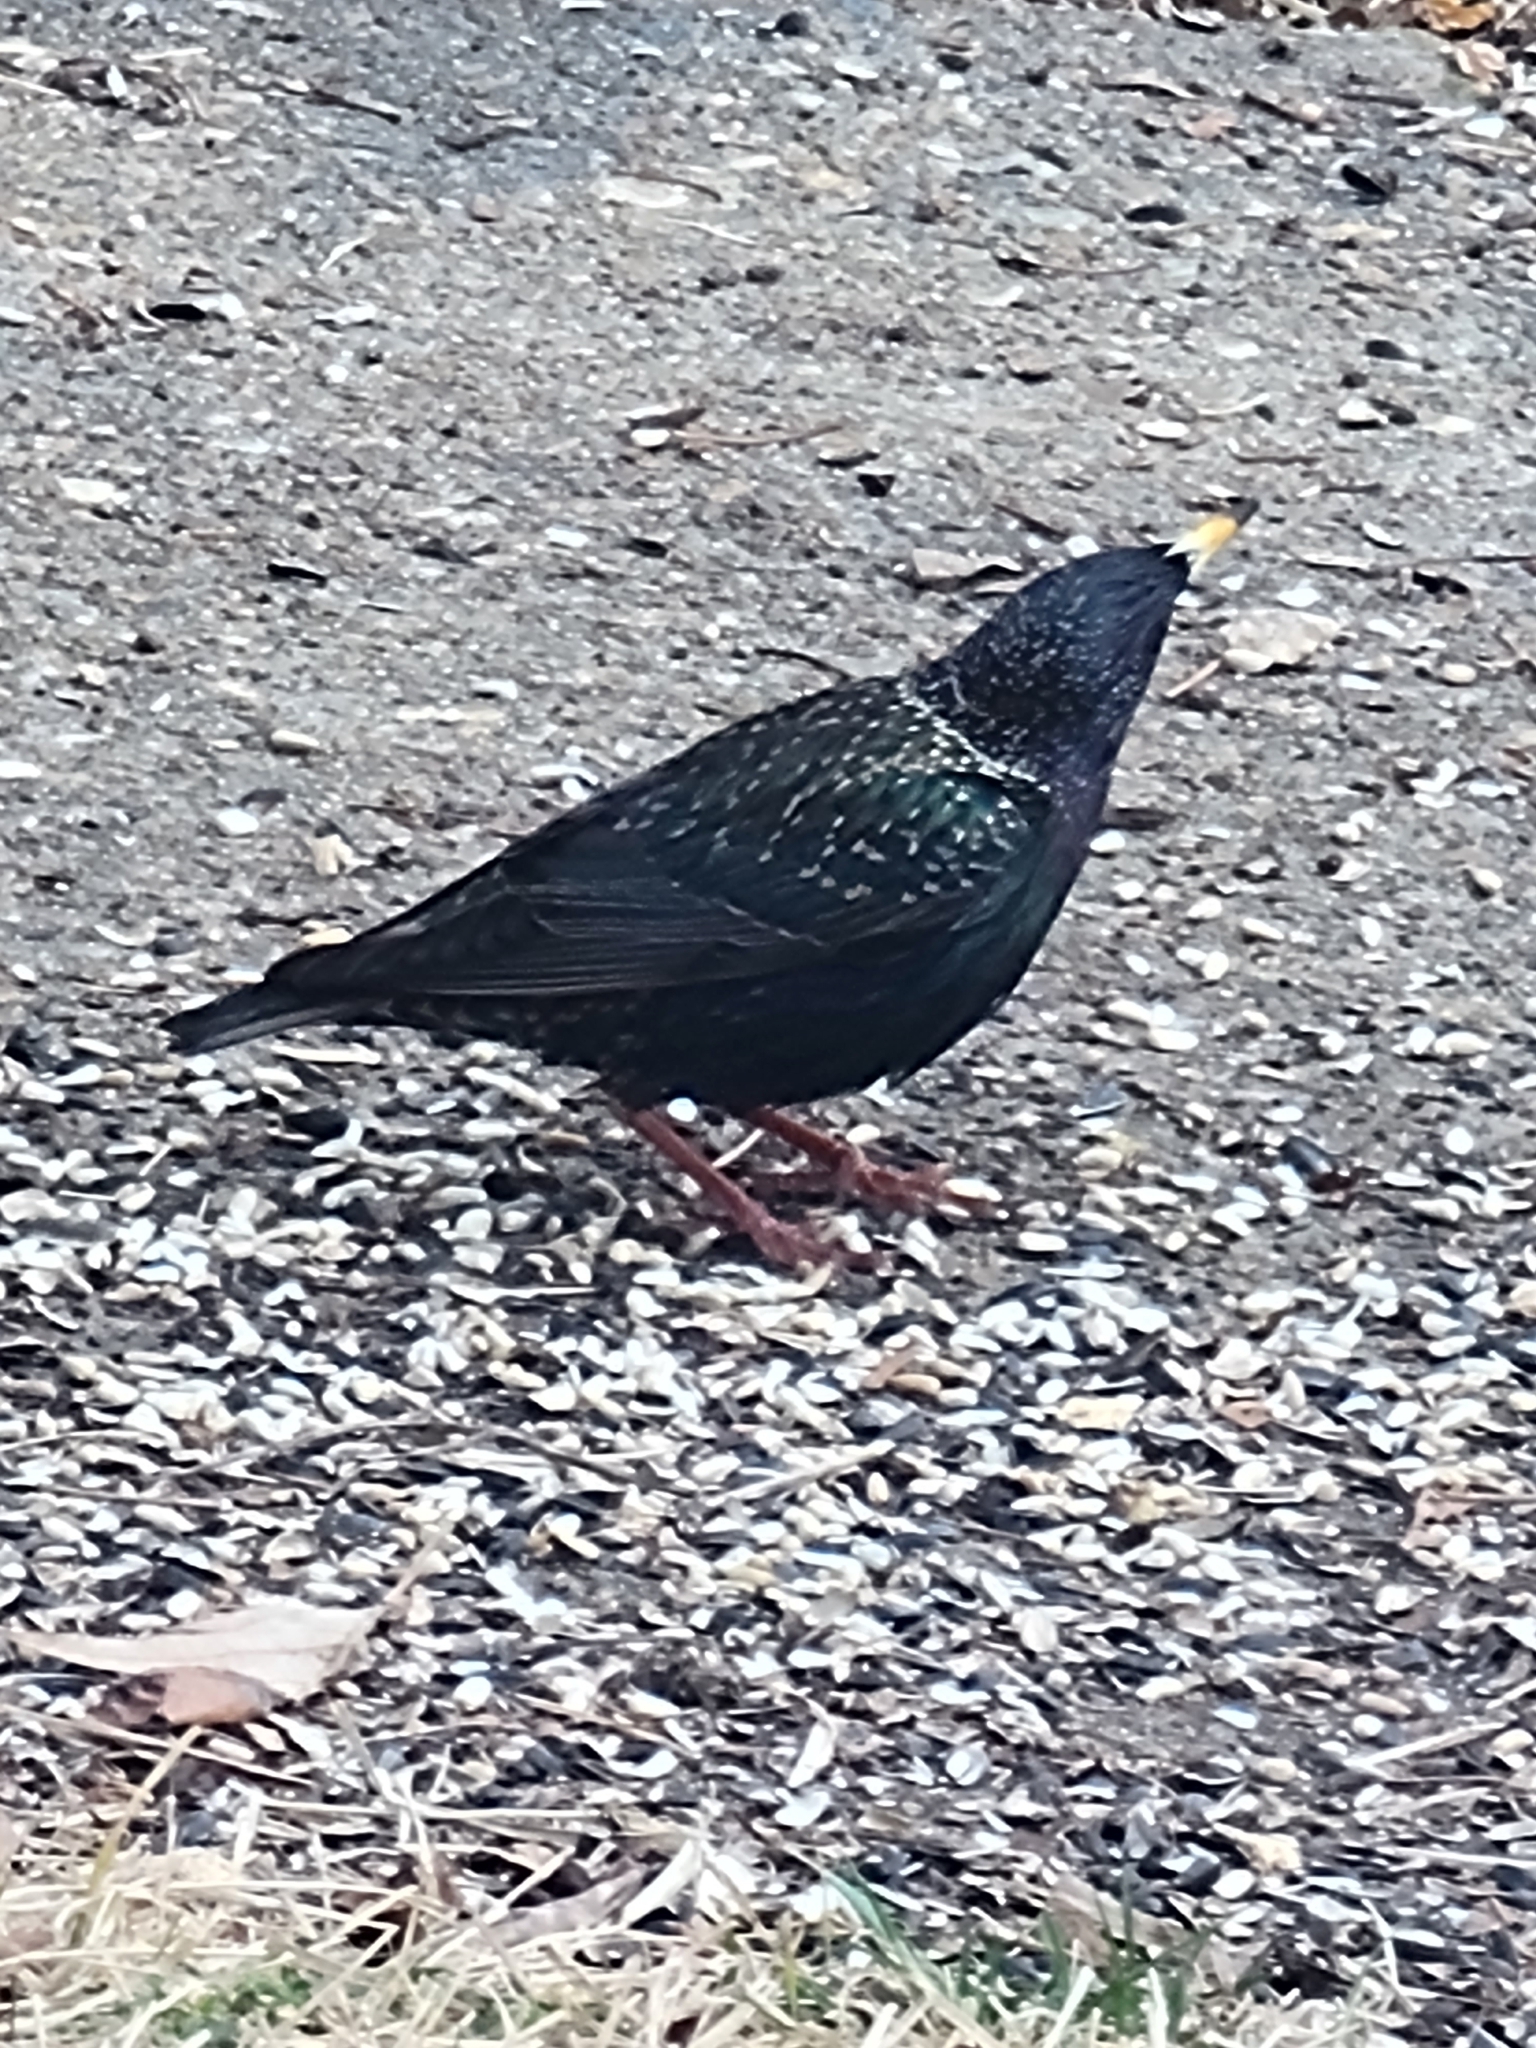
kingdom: Animalia
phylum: Chordata
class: Aves
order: Passeriformes
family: Sturnidae
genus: Sturnus
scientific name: Sturnus vulgaris
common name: Common starling
